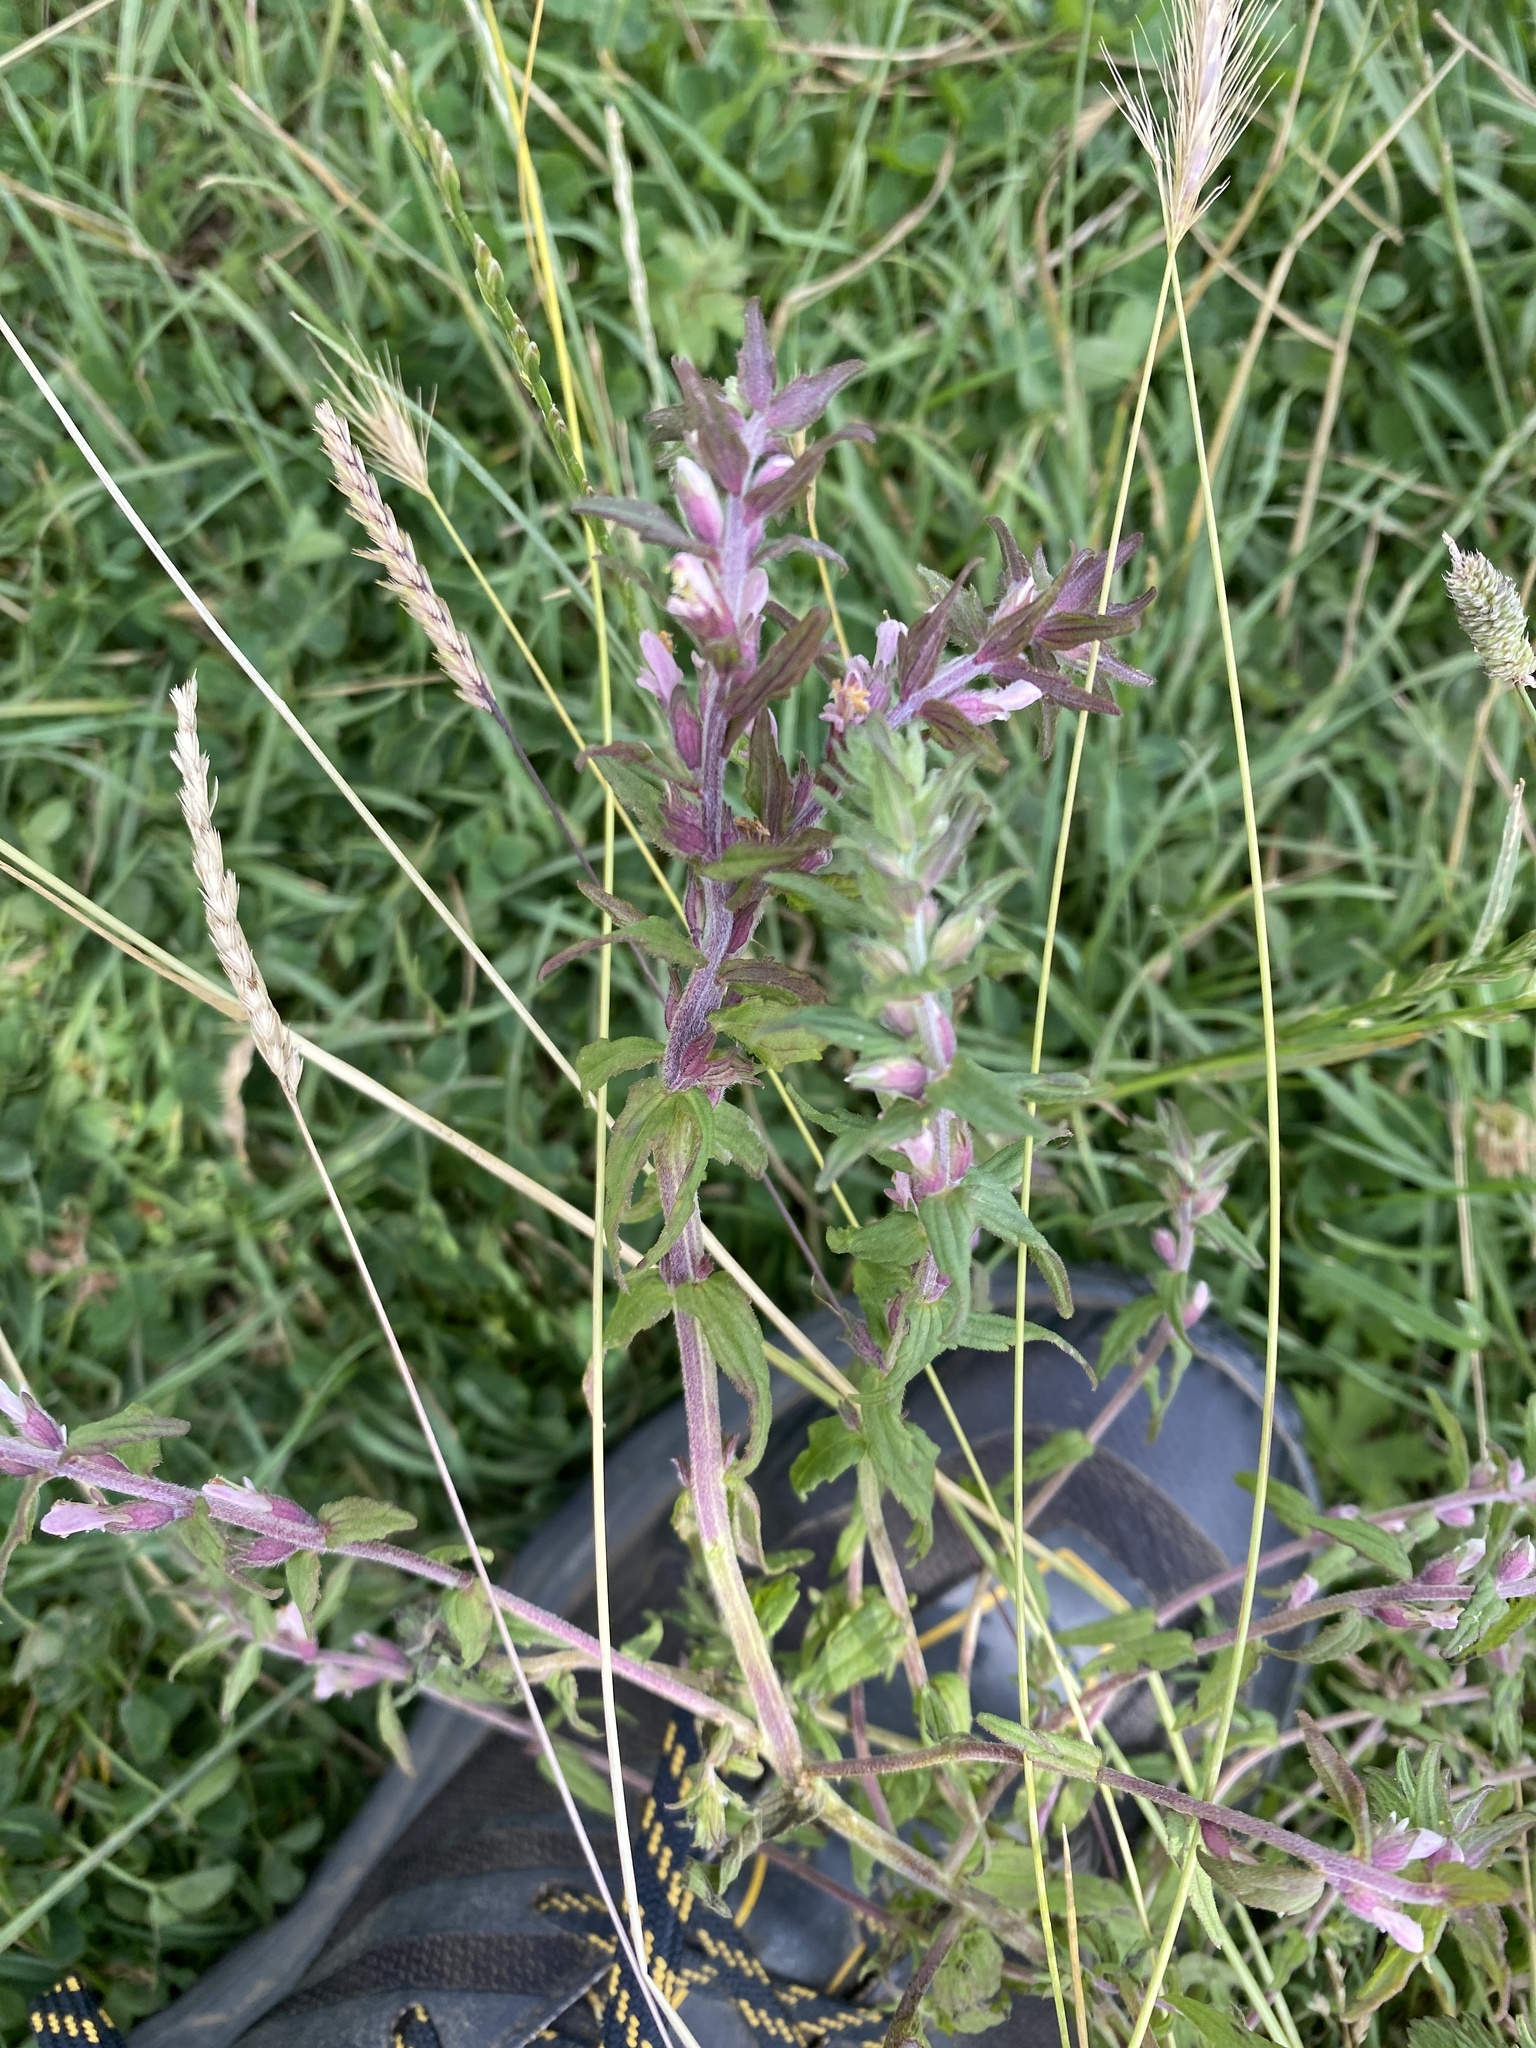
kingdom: Plantae
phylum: Tracheophyta
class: Magnoliopsida
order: Lamiales
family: Orobanchaceae
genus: Odontites
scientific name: Odontites vernus
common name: Red bartsia
